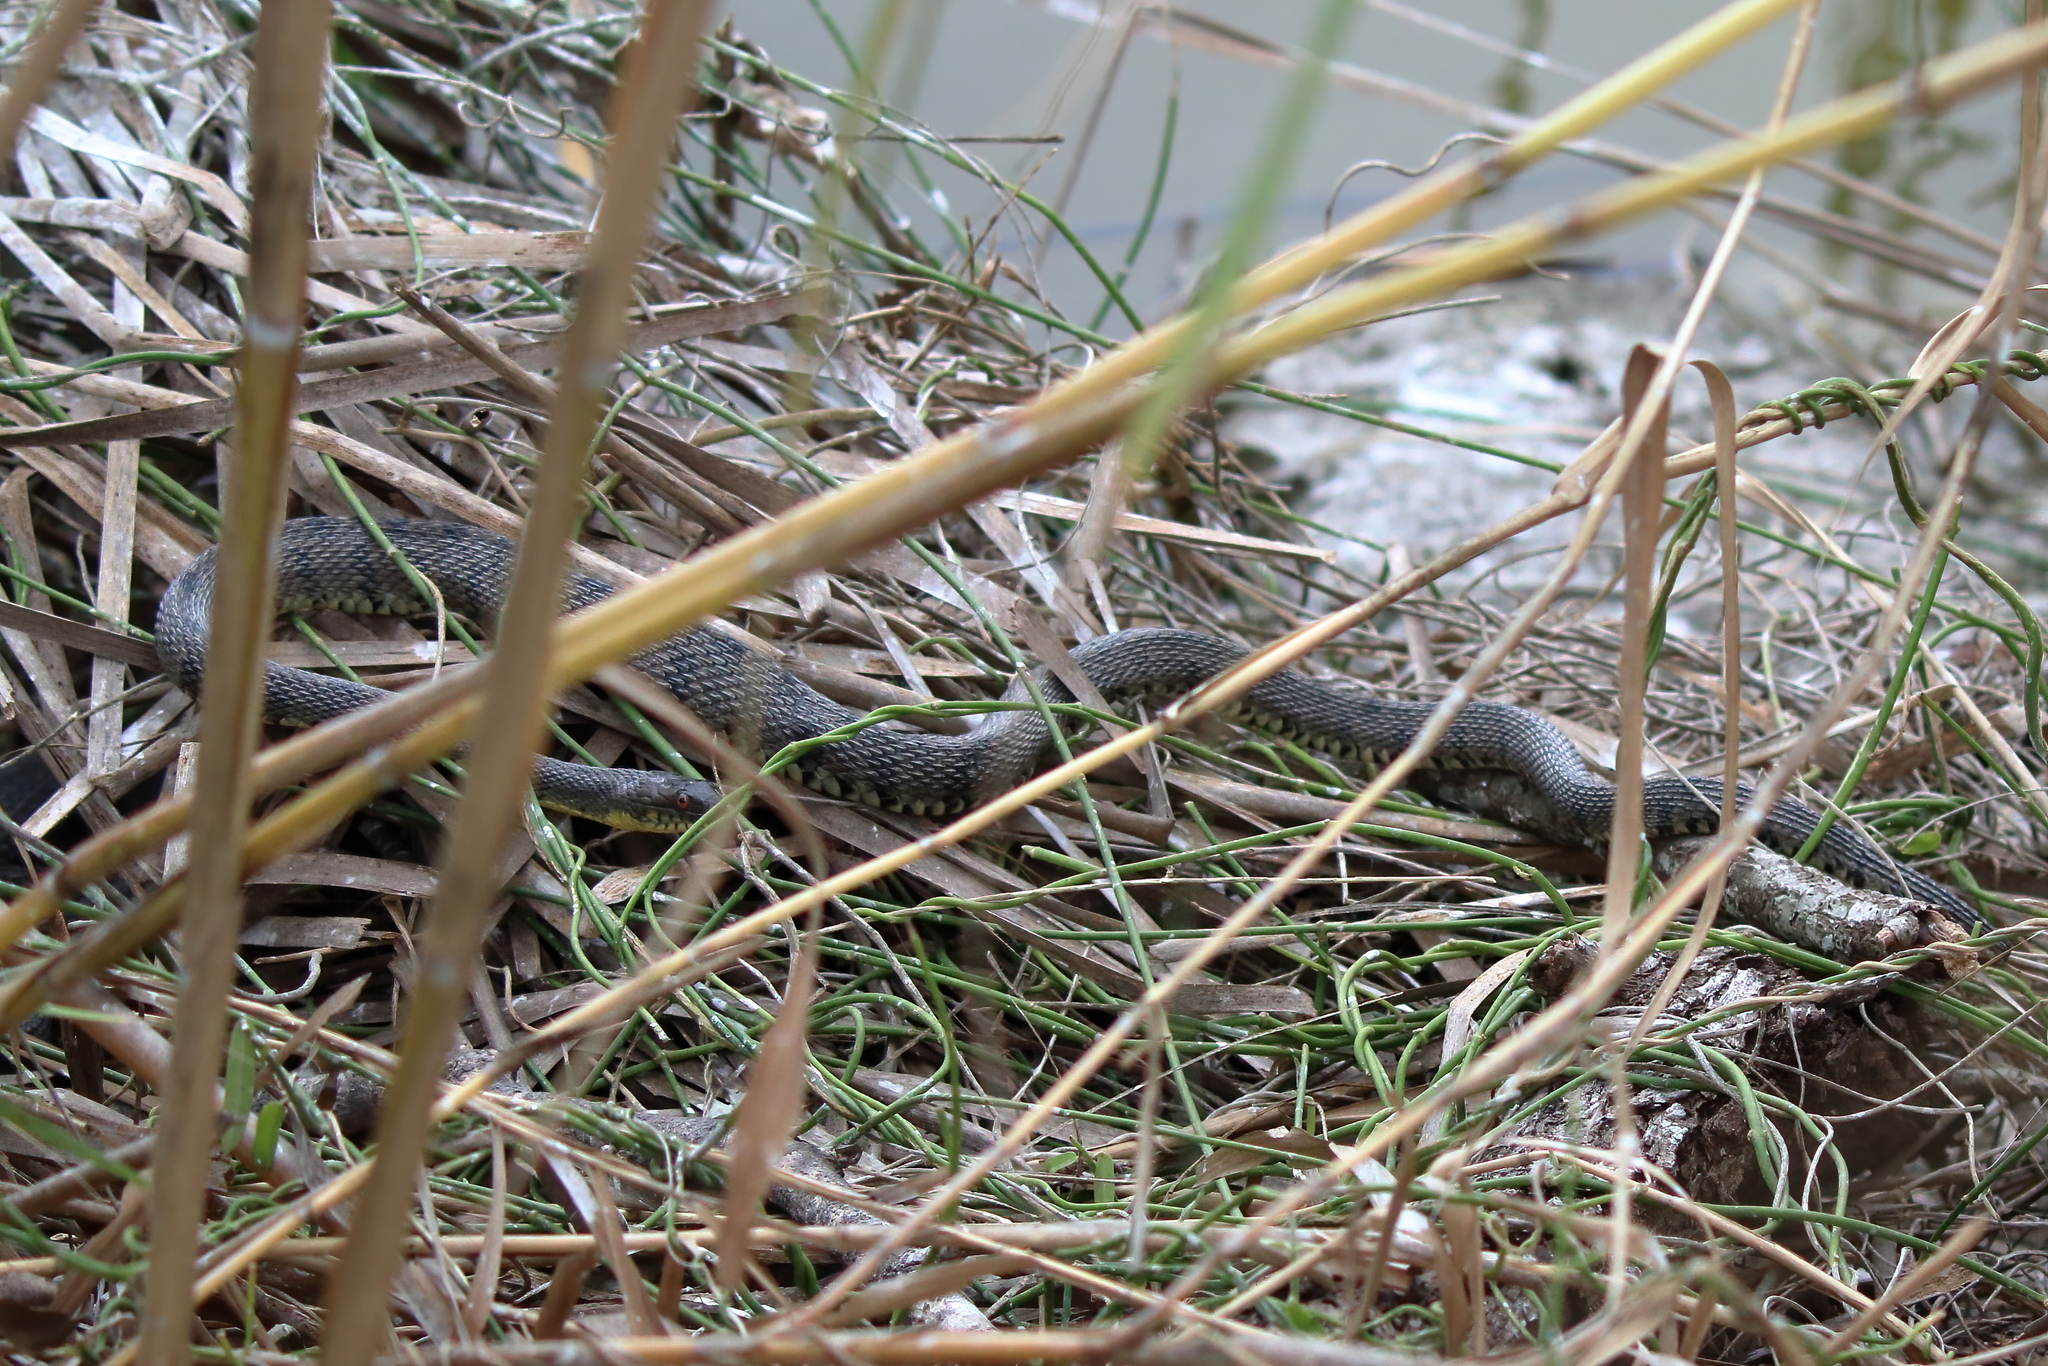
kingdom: Animalia
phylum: Chordata
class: Squamata
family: Colubridae
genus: Nerodia
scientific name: Nerodia rhombifer
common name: Diamondback water snake
